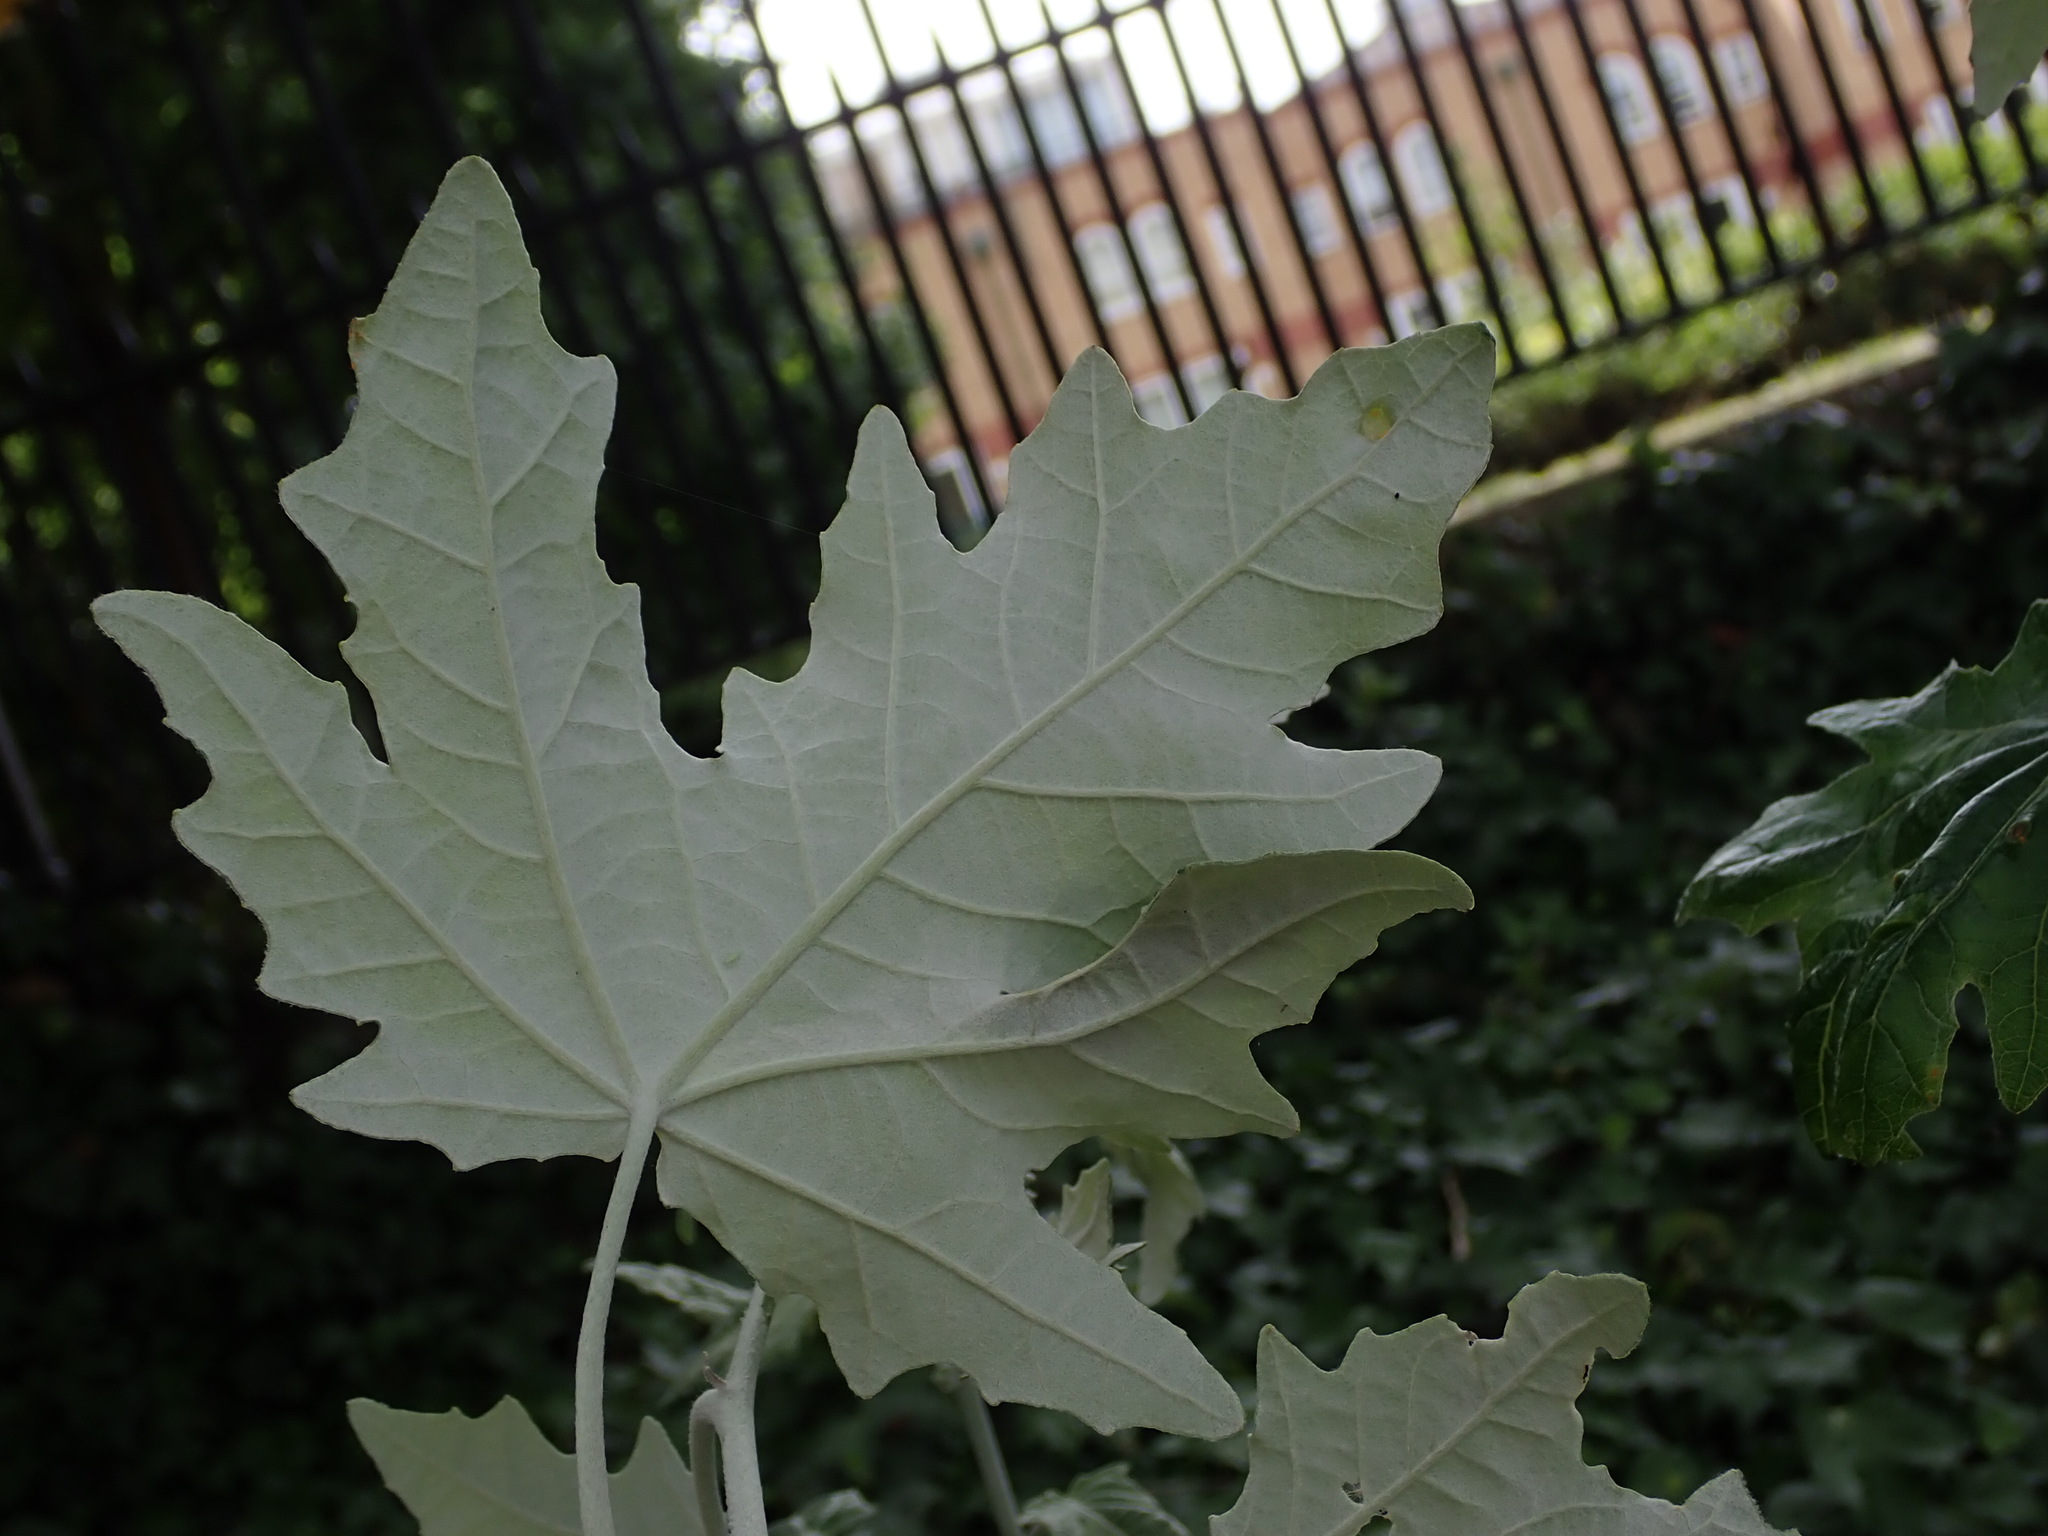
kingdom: Plantae
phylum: Tracheophyta
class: Magnoliopsida
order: Malpighiales
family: Salicaceae
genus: Populus
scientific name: Populus alba
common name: White poplar
